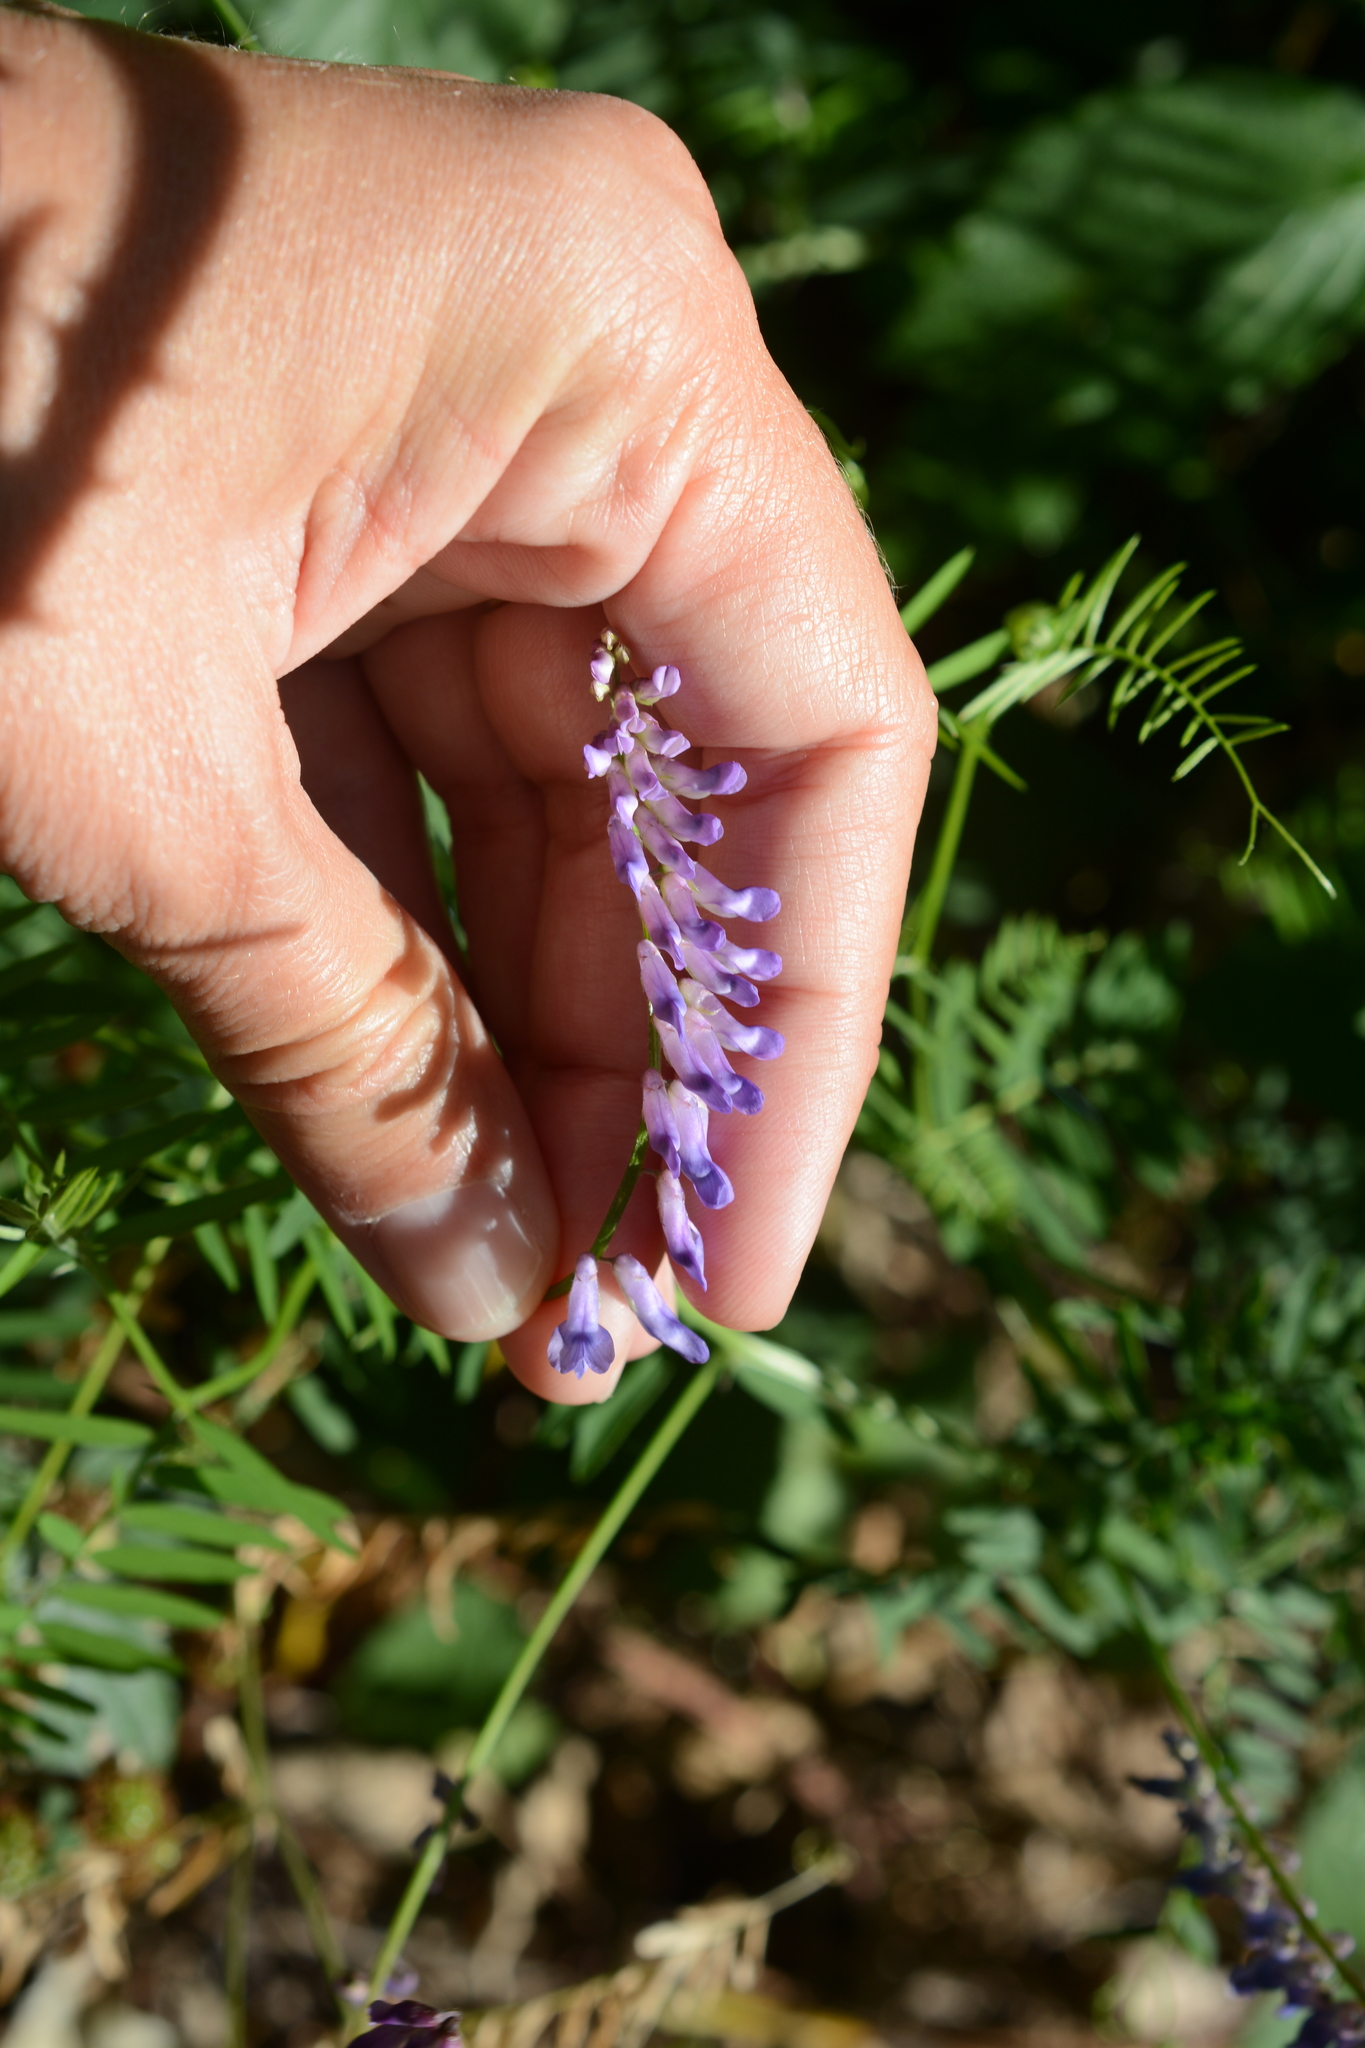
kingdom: Plantae
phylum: Tracheophyta
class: Magnoliopsida
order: Fabales
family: Fabaceae
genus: Vicia
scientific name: Vicia cracca
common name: Bird vetch
